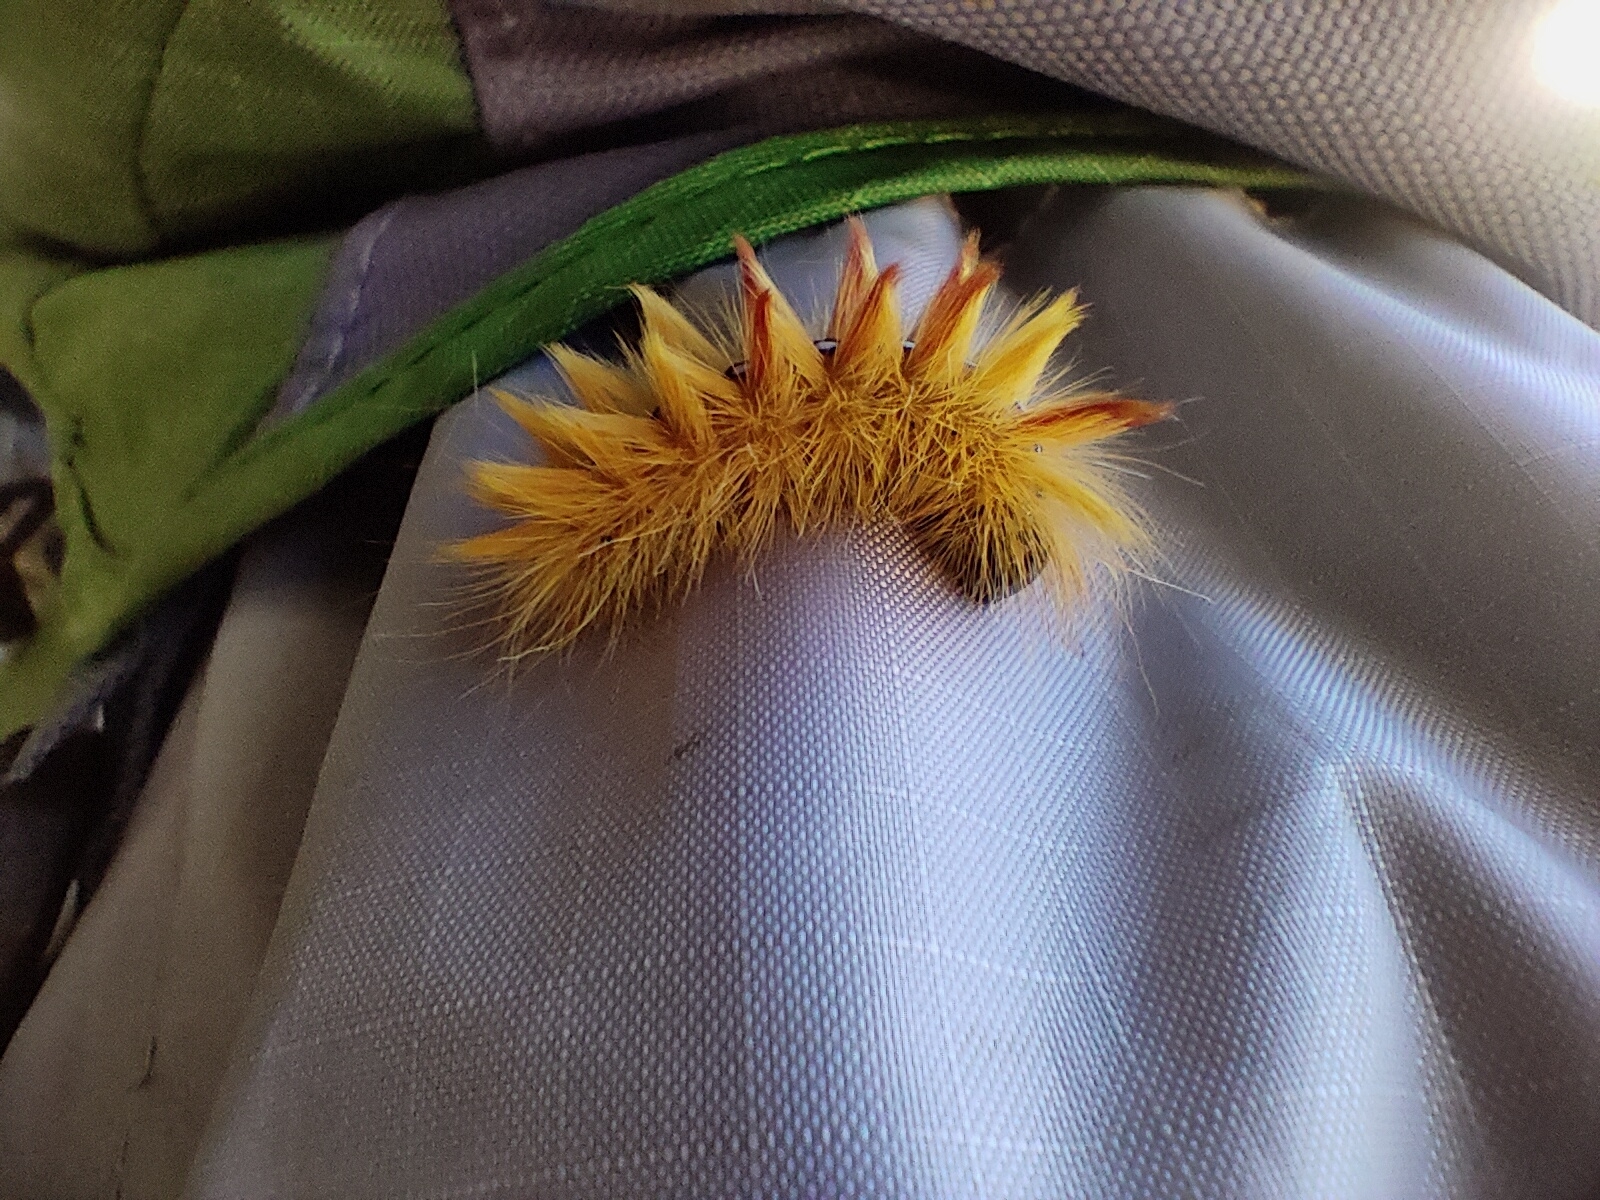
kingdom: Animalia
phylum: Arthropoda
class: Insecta
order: Lepidoptera
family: Noctuidae
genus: Acronicta
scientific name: Acronicta aceris
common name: Sycamore
